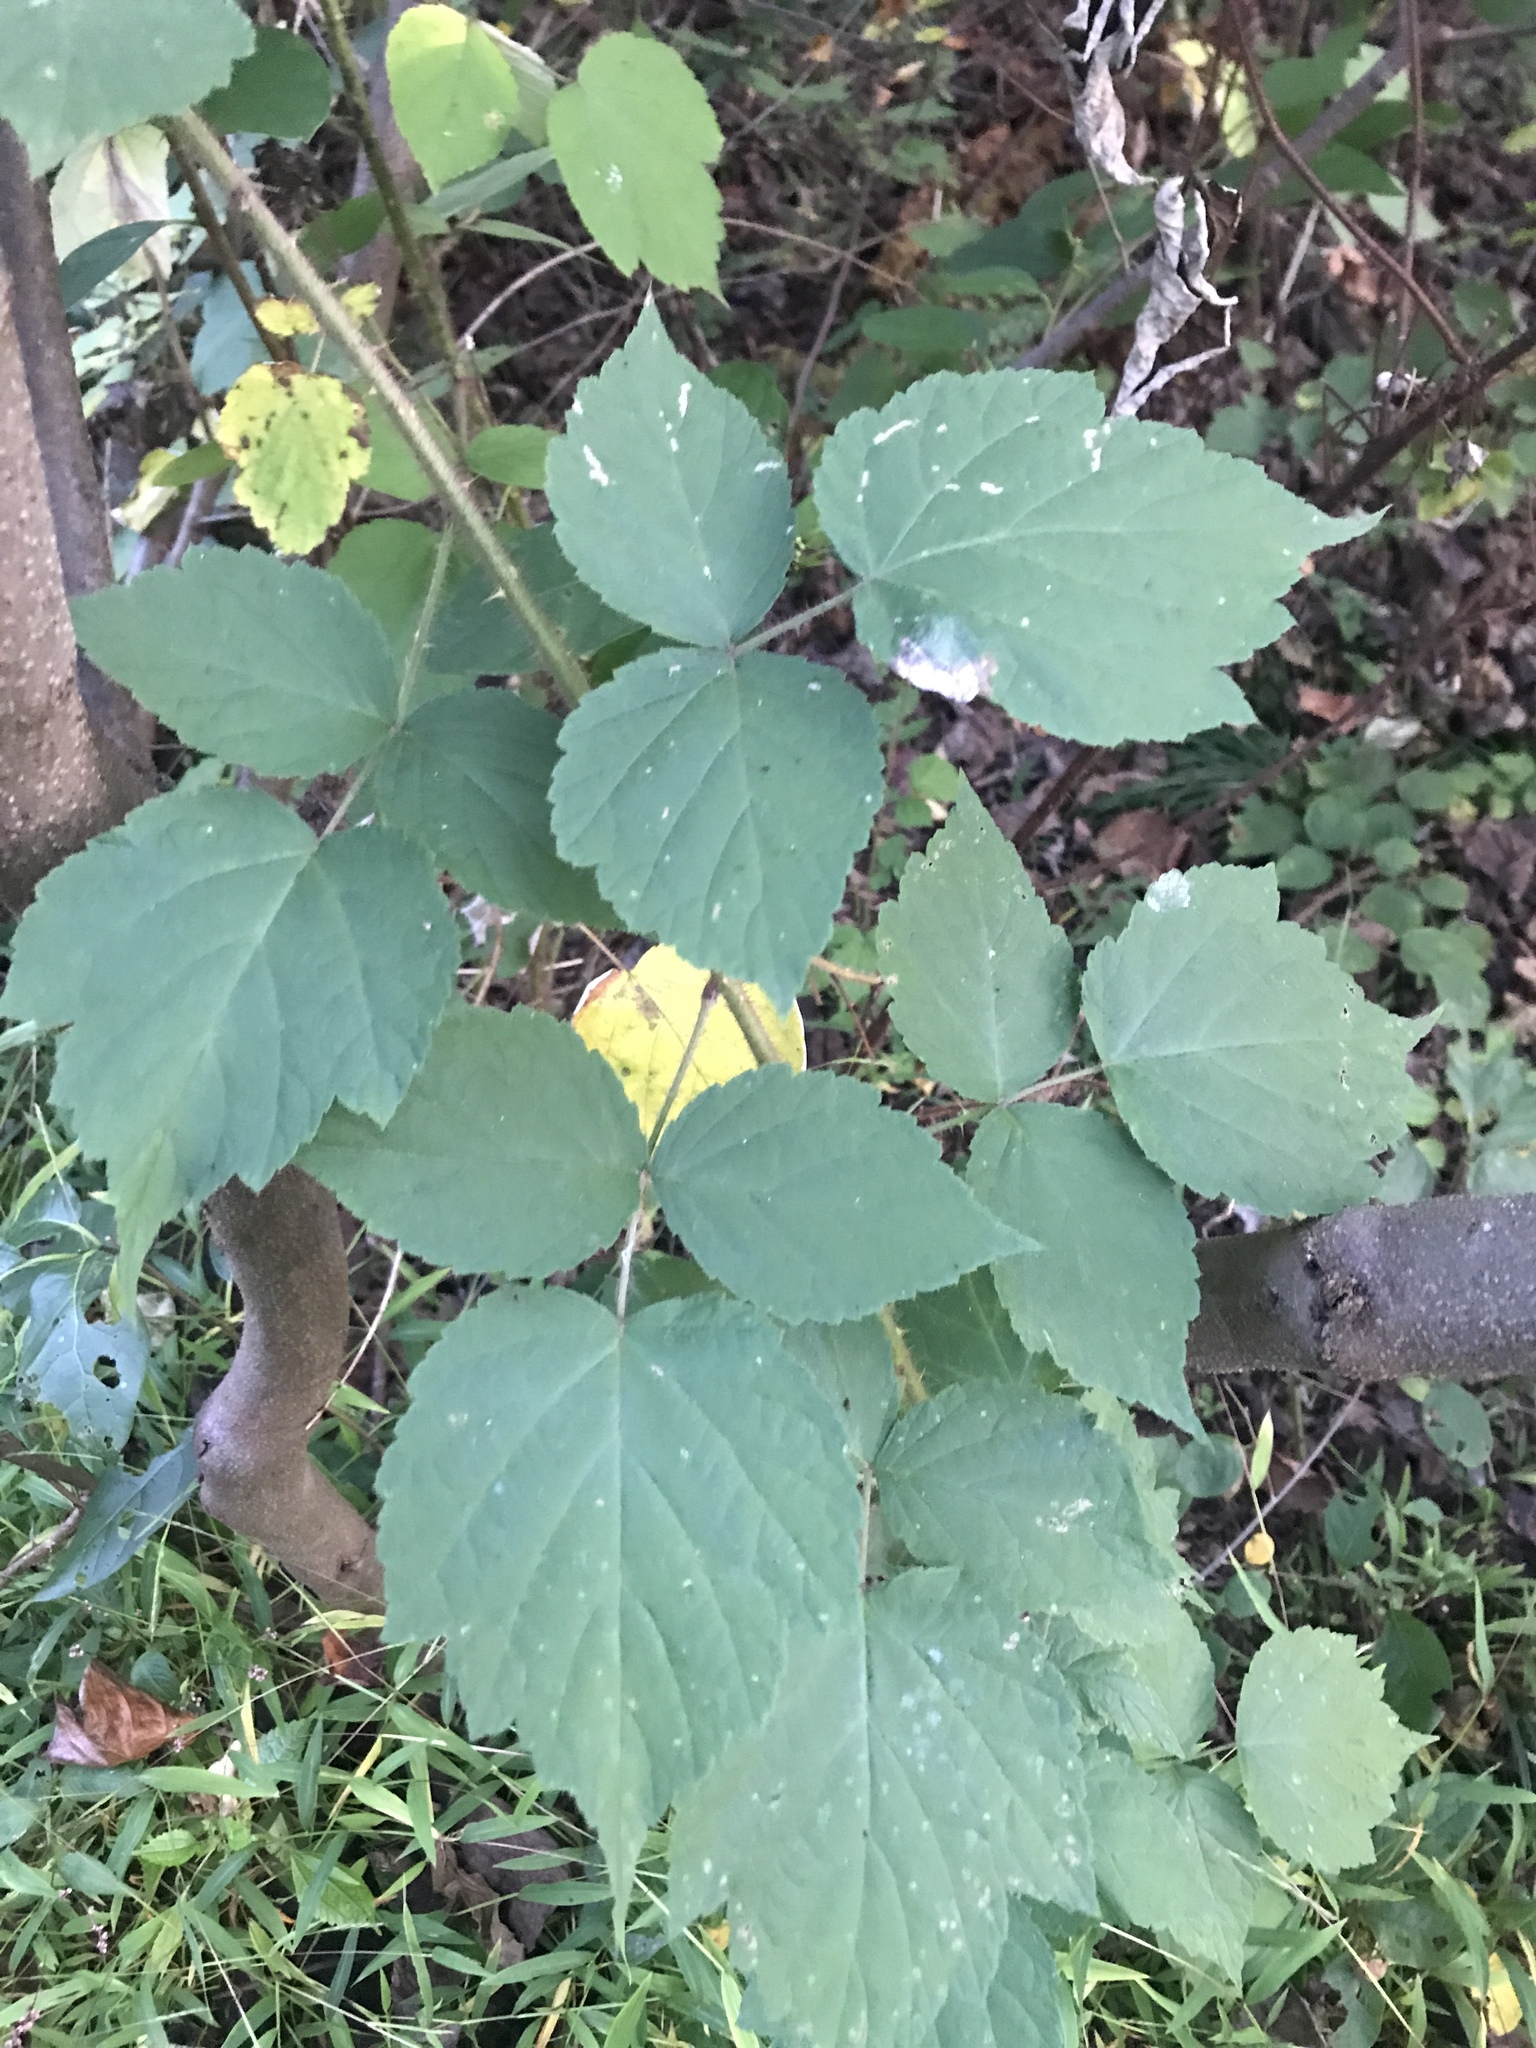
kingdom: Plantae
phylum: Tracheophyta
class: Magnoliopsida
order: Rosales
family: Rosaceae
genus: Rubus
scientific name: Rubus phoenicolasius
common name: Japanese wineberry
